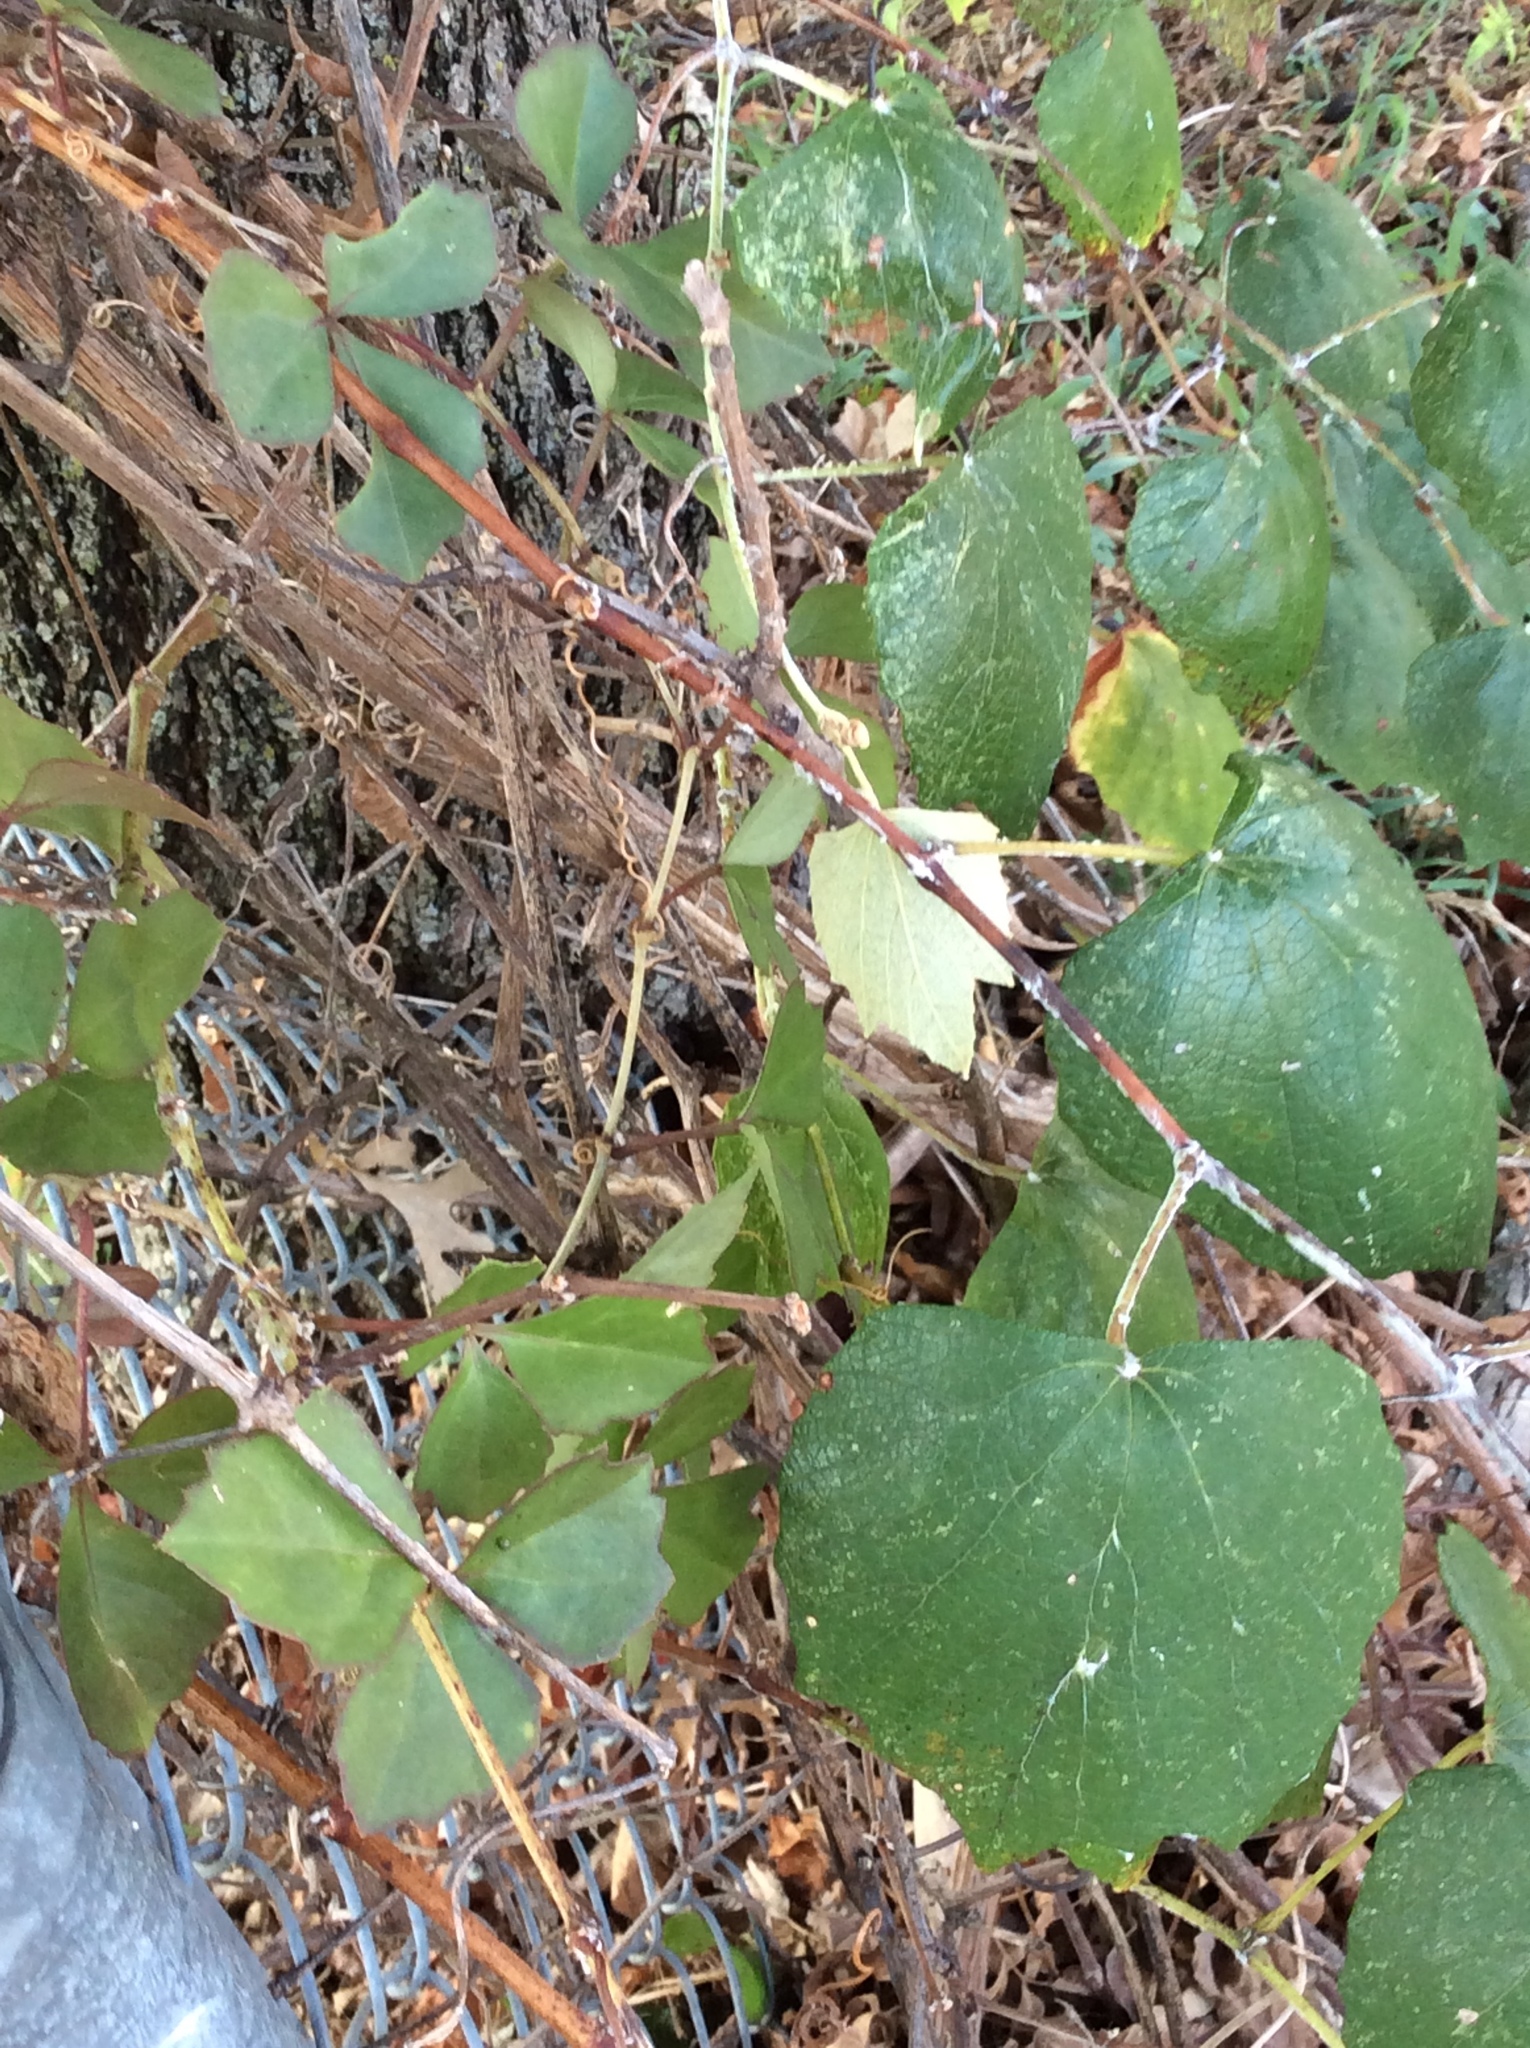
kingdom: Plantae
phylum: Tracheophyta
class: Magnoliopsida
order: Vitales
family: Vitaceae
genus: Vitis
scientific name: Vitis mustangensis
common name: Mustang grape
